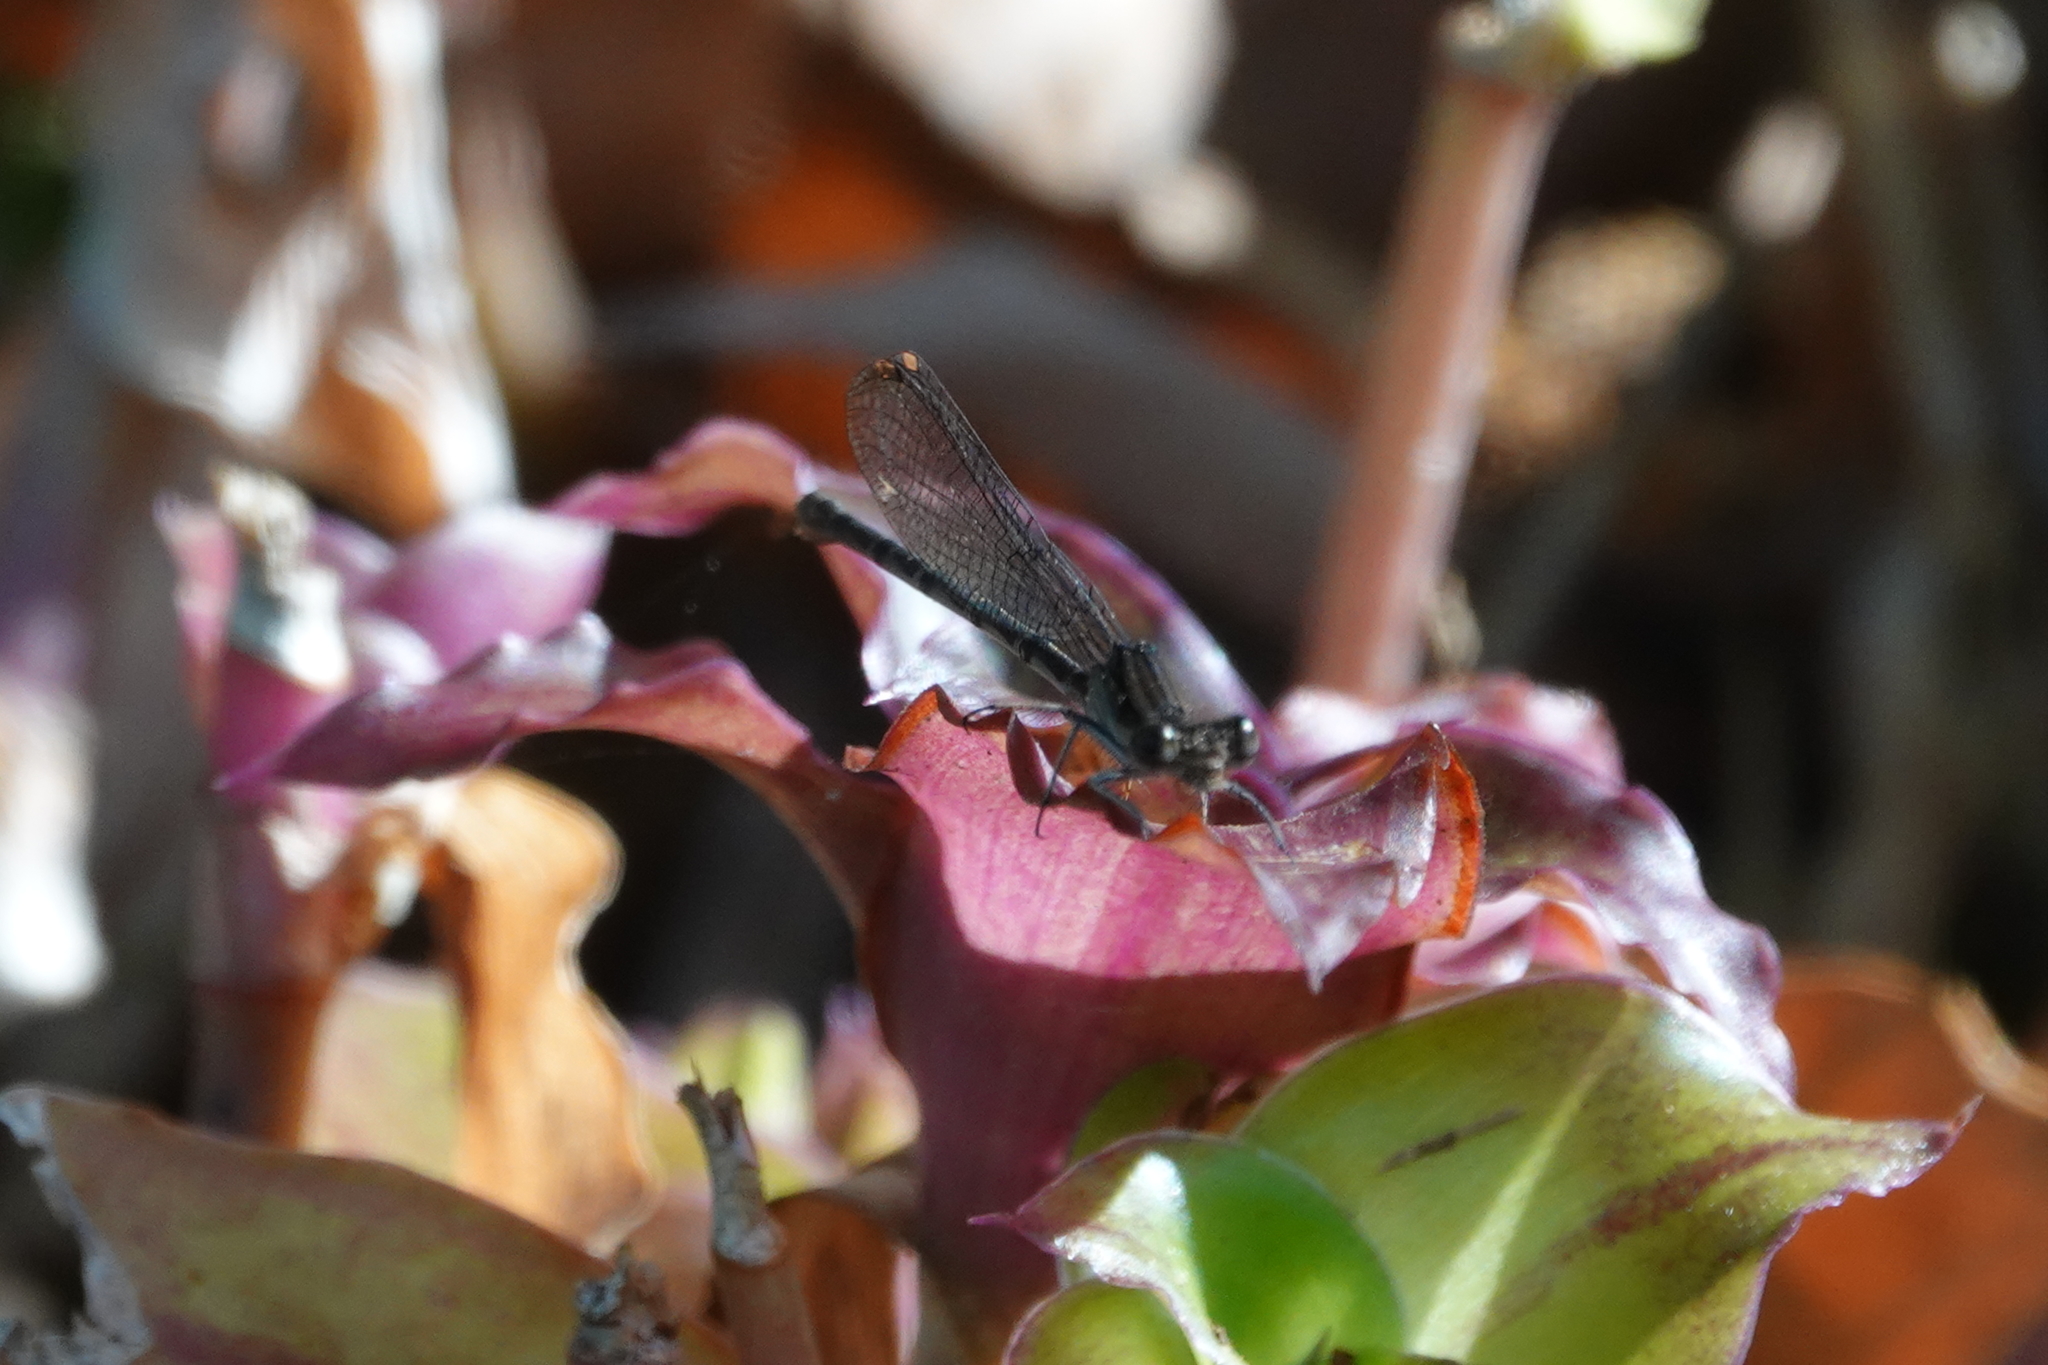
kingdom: Animalia
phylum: Arthropoda
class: Insecta
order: Odonata
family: Coenagrionidae
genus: Argia
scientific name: Argia sedula
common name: Blue-ringed dancer
